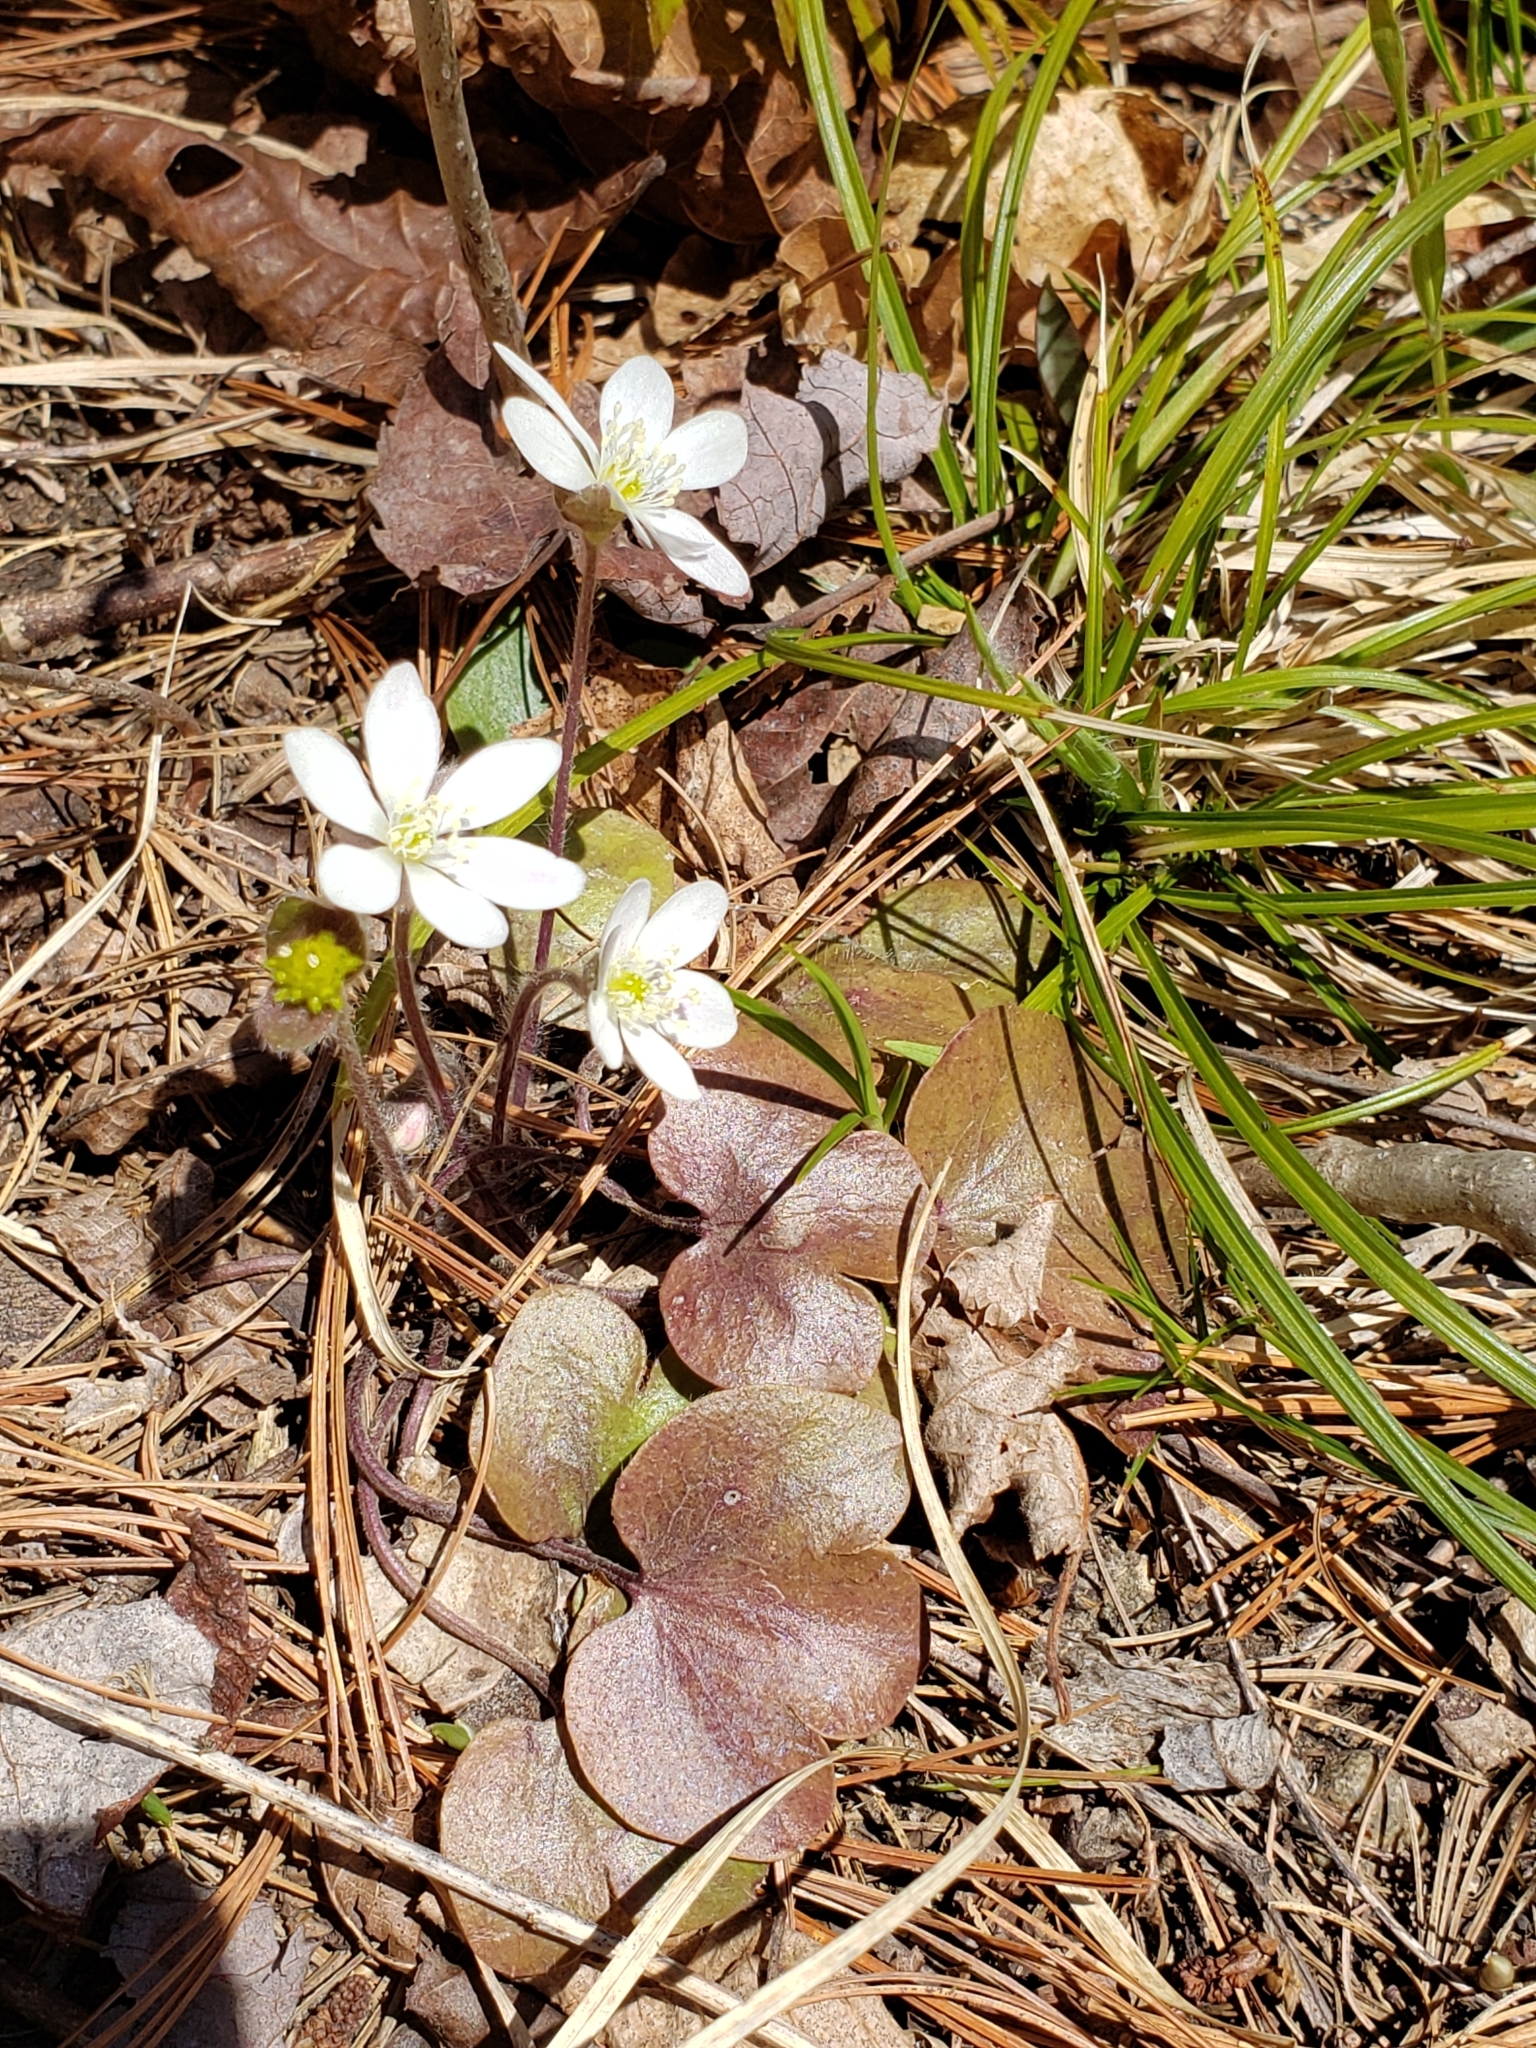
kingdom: Plantae
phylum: Tracheophyta
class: Magnoliopsida
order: Ranunculales
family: Ranunculaceae
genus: Hepatica
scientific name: Hepatica americana
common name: American hepatica
